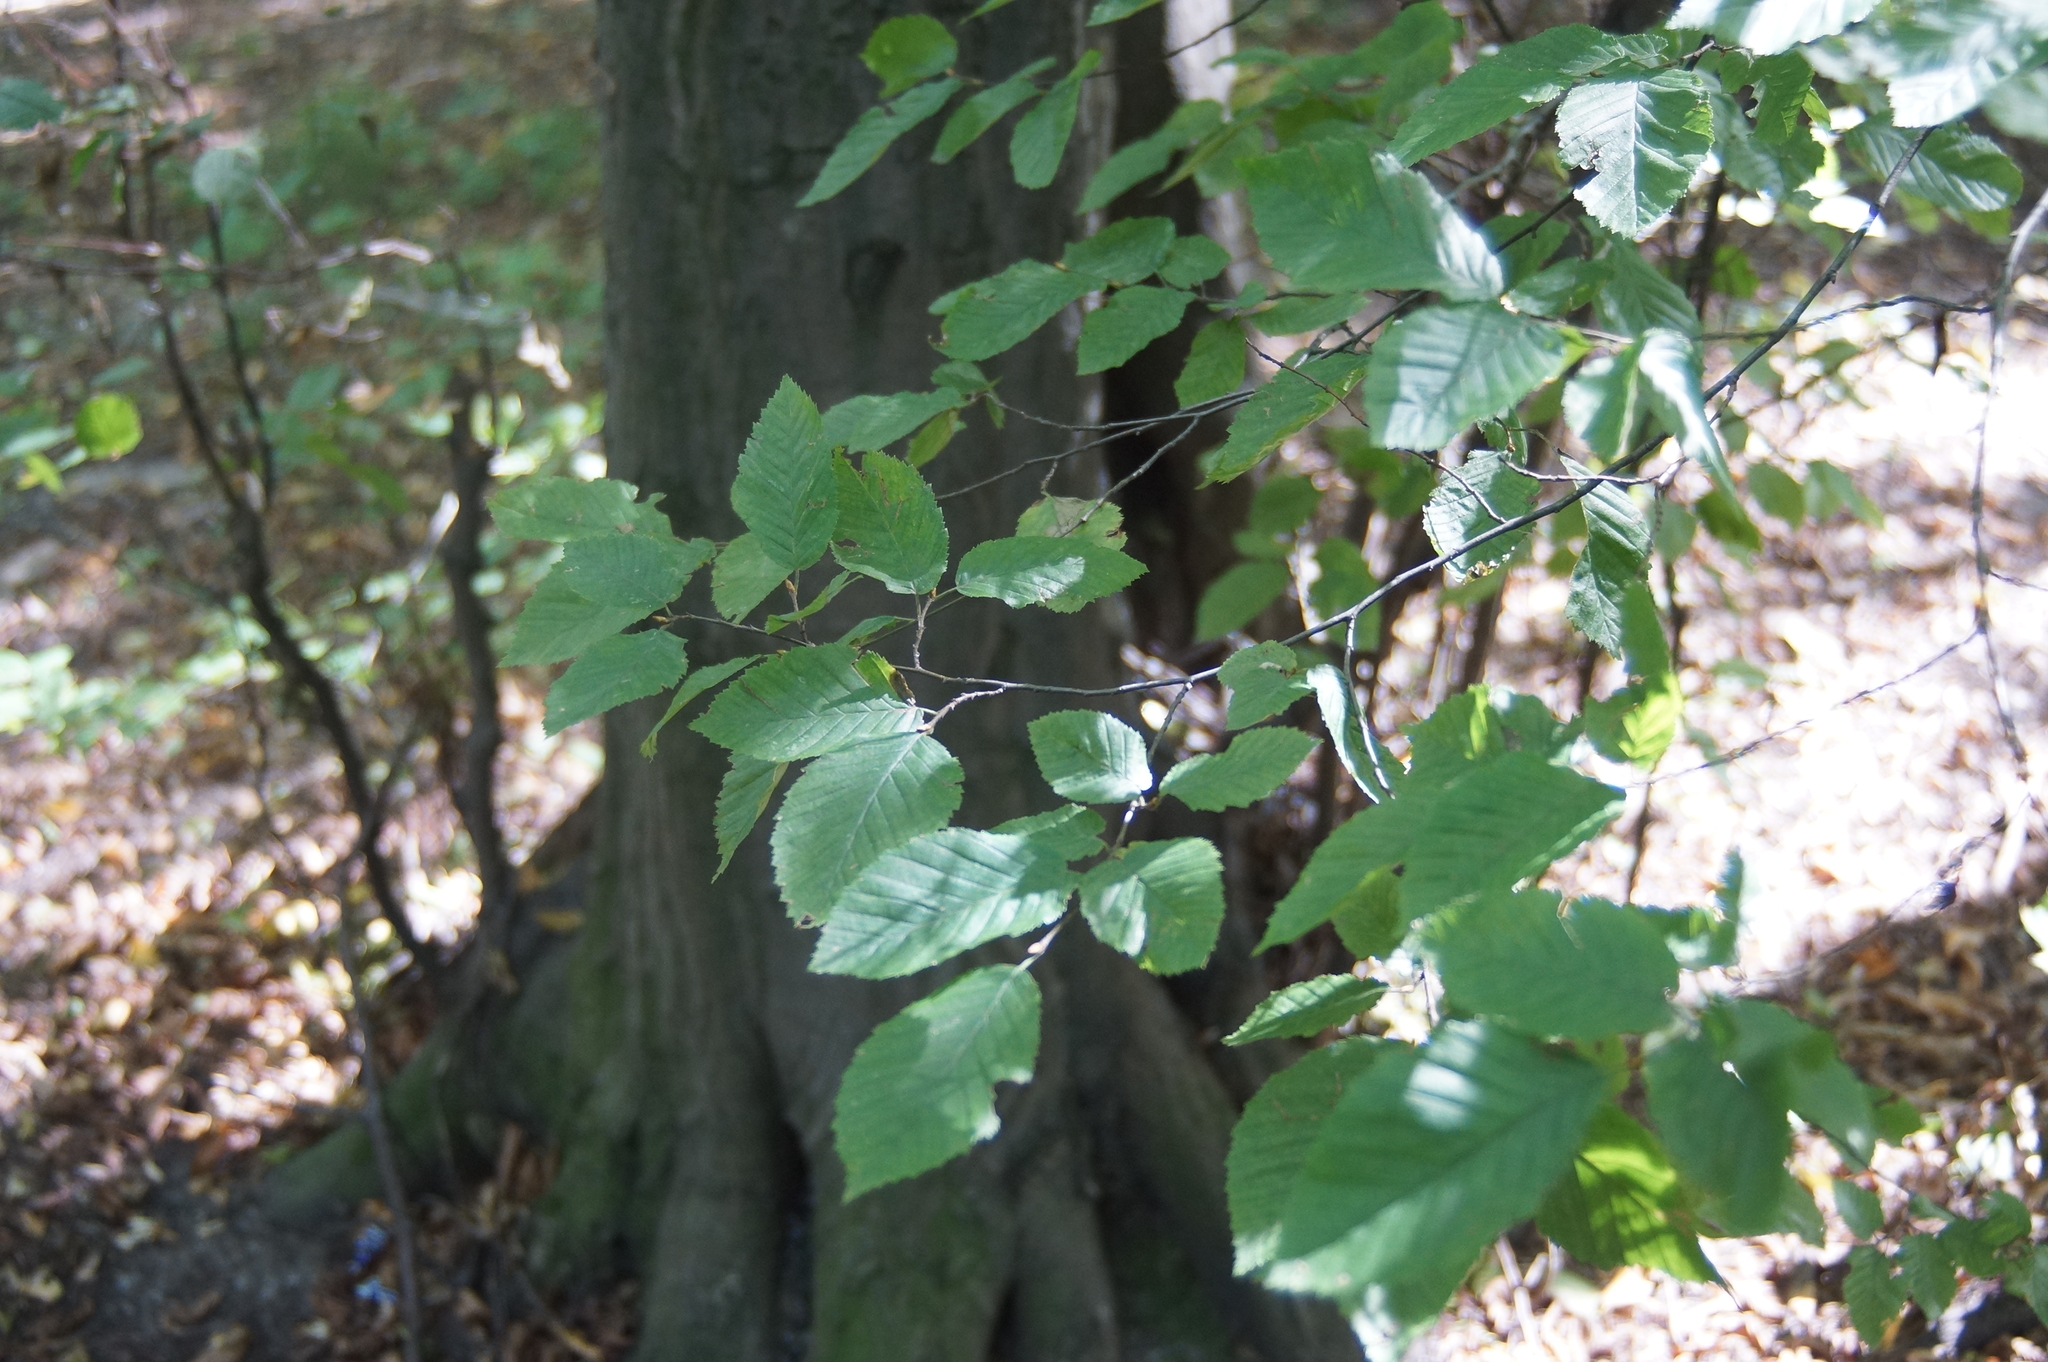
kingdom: Plantae
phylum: Tracheophyta
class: Magnoliopsida
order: Fagales
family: Betulaceae
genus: Carpinus
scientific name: Carpinus betulus
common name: Hornbeam
